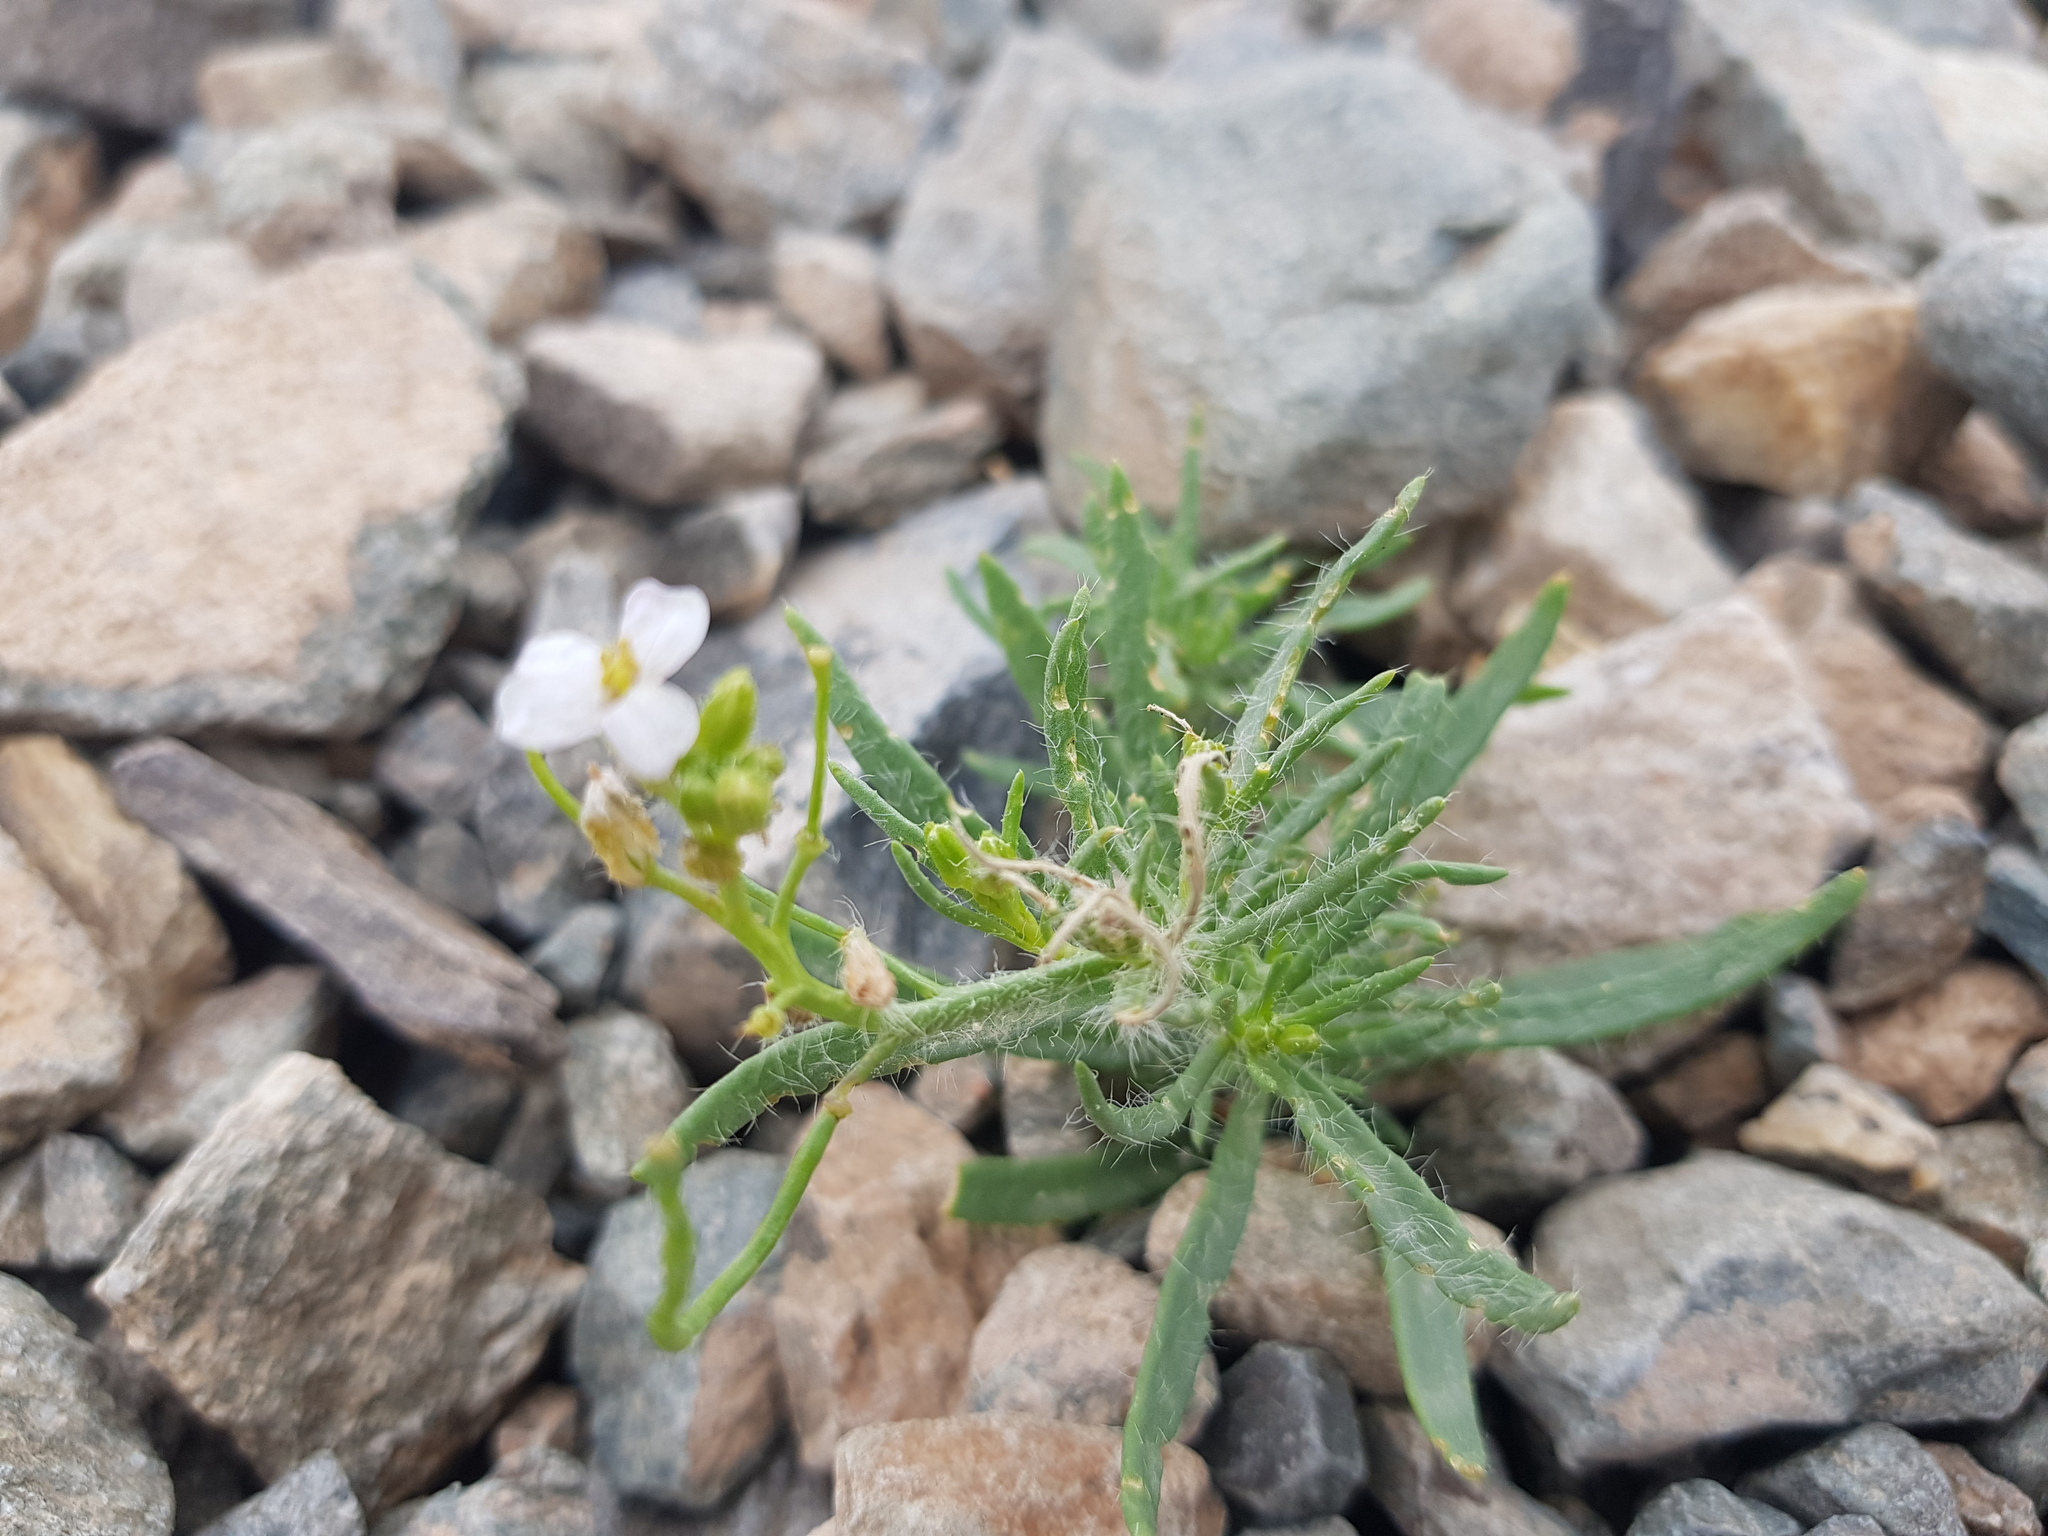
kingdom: Plantae
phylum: Tracheophyta
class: Magnoliopsida
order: Brassicales
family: Brassicaceae
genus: Dontostemon
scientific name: Dontostemon integrifolius
